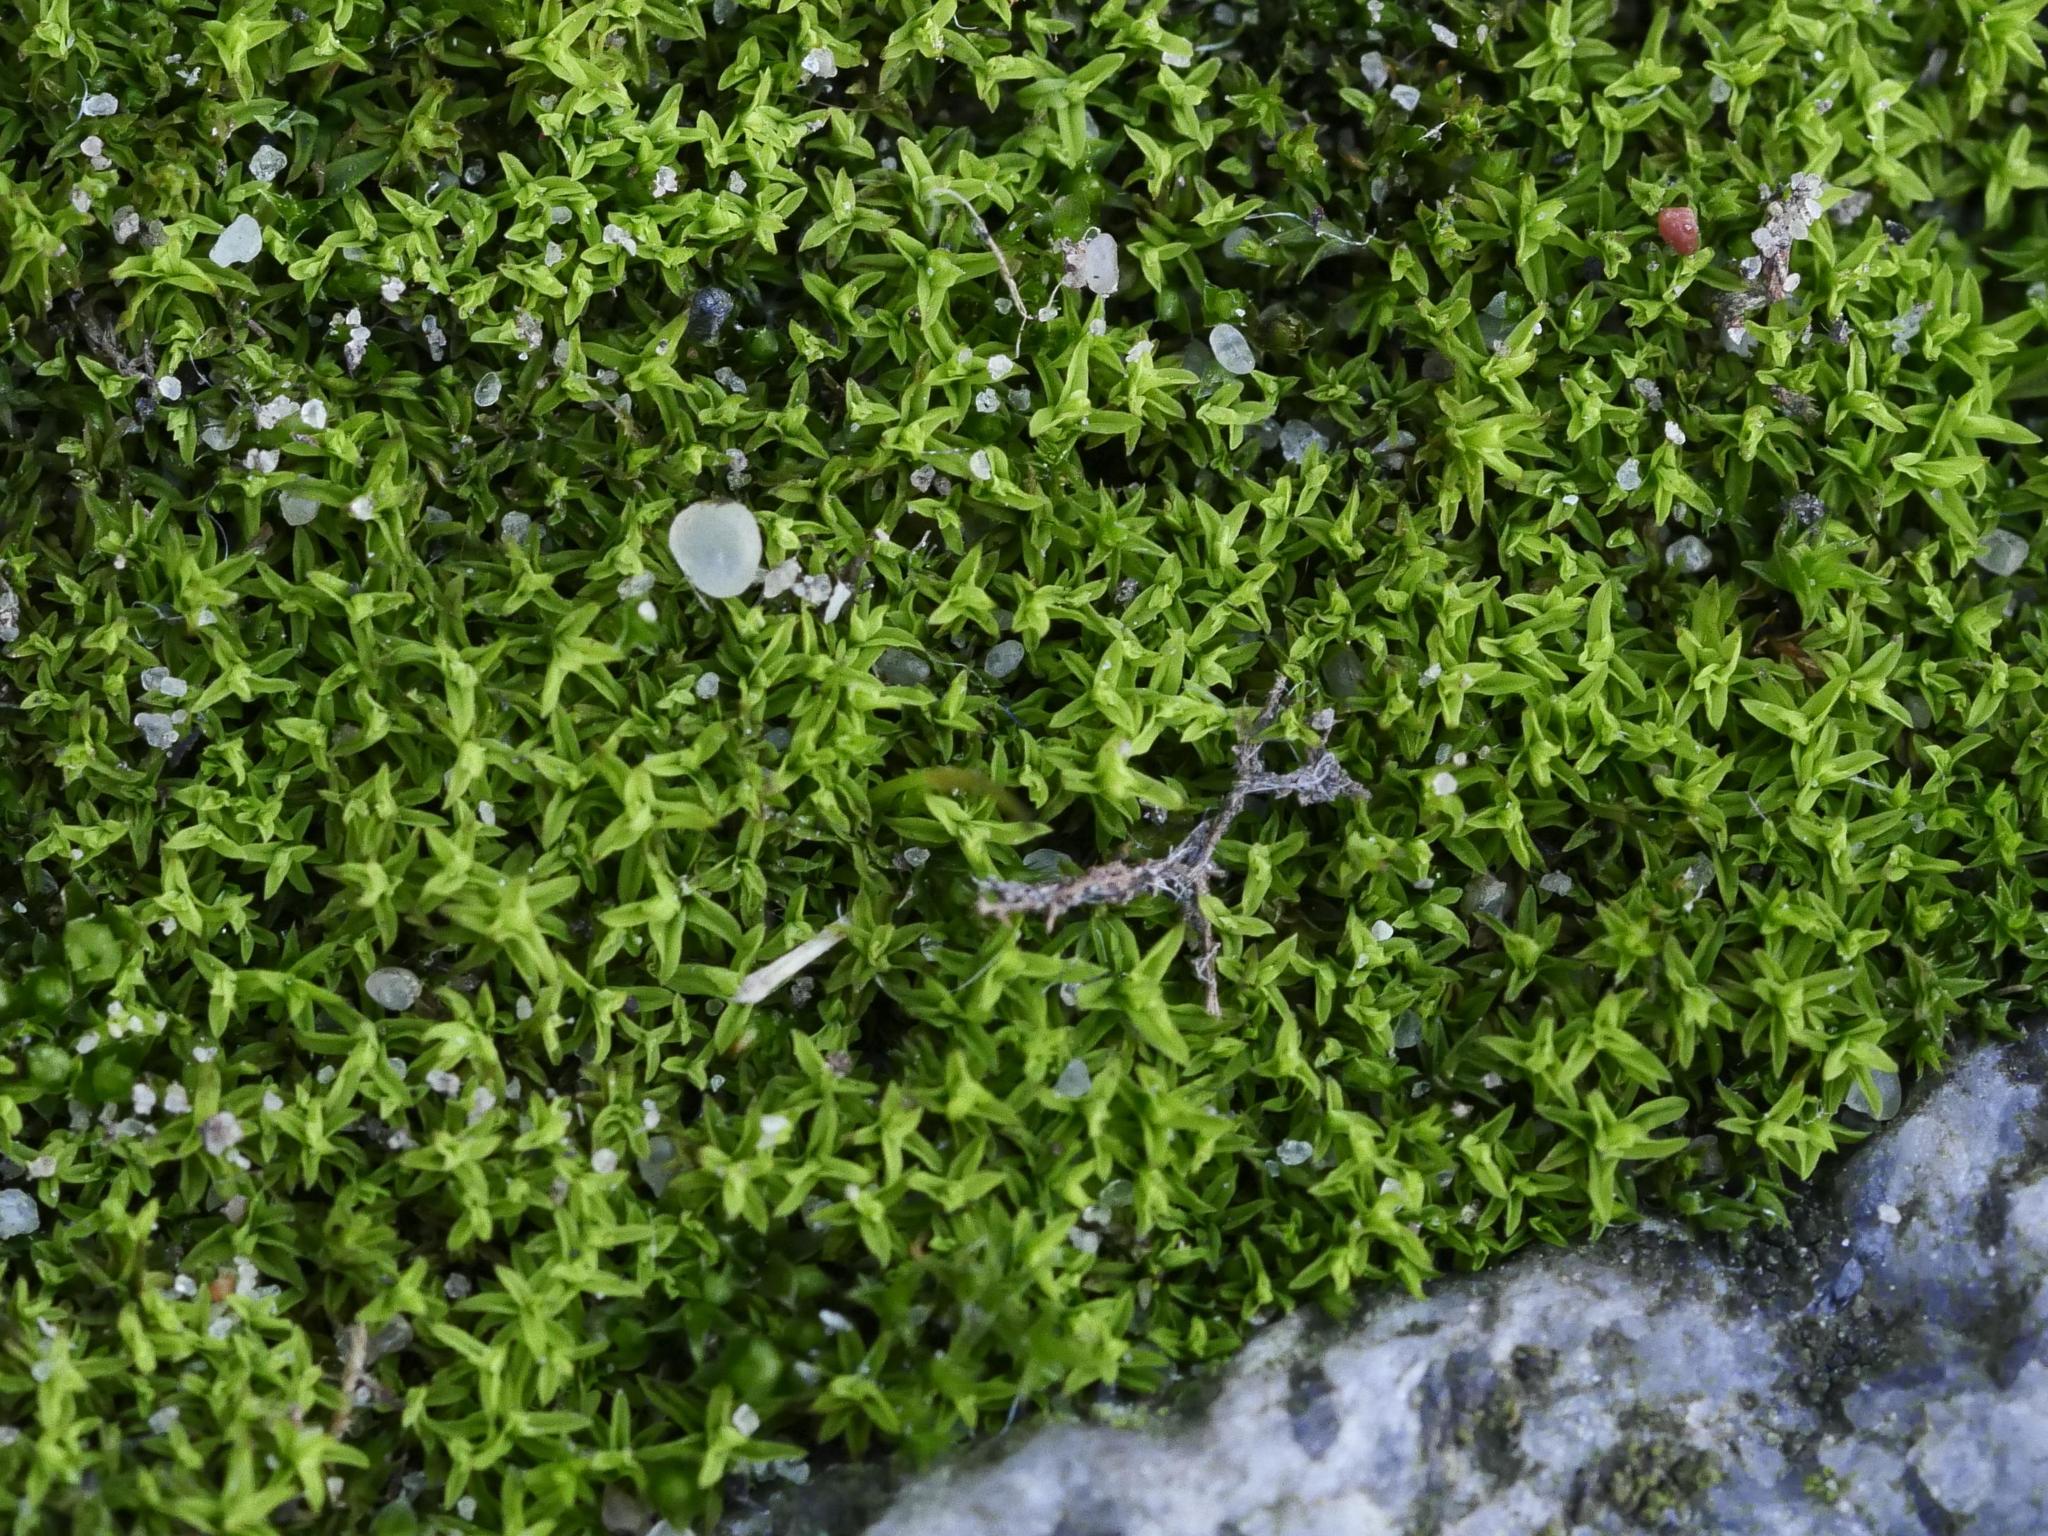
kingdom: Plantae
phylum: Bryophyta
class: Bryopsida
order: Pottiales
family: Pottiaceae
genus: Barbula
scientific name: Barbula unguiculata
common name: Prickly beard moss
